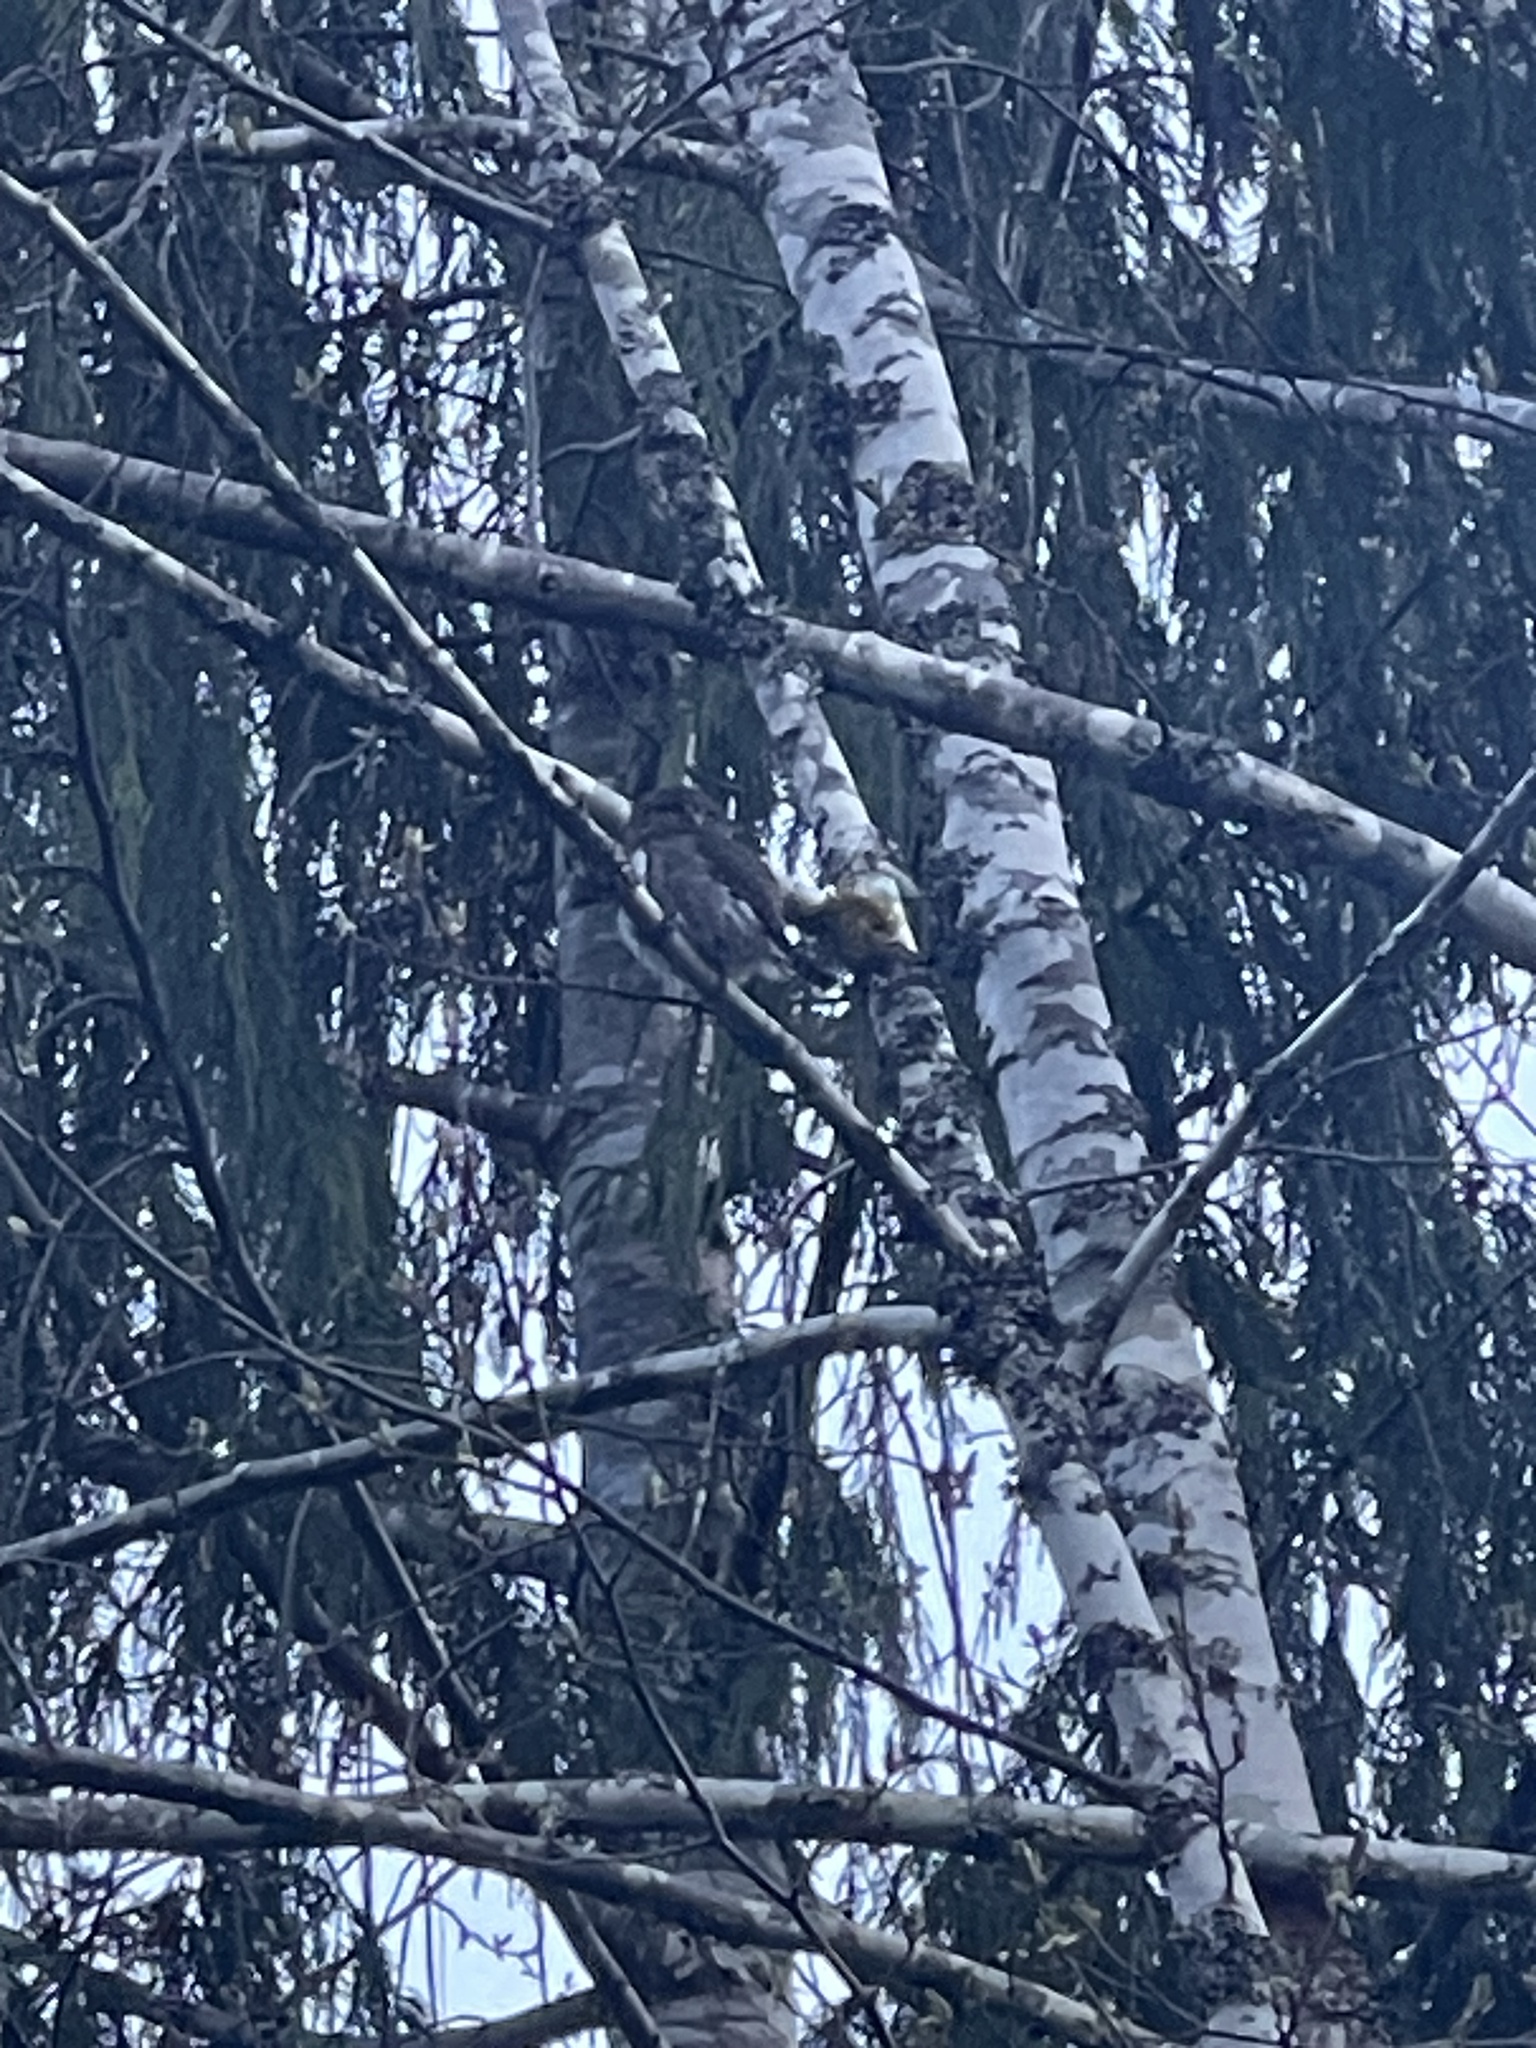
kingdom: Animalia
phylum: Chordata
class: Aves
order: Strigiformes
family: Strigidae
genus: Glaucidium
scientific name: Glaucidium californicum
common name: Northern pygmy owl
